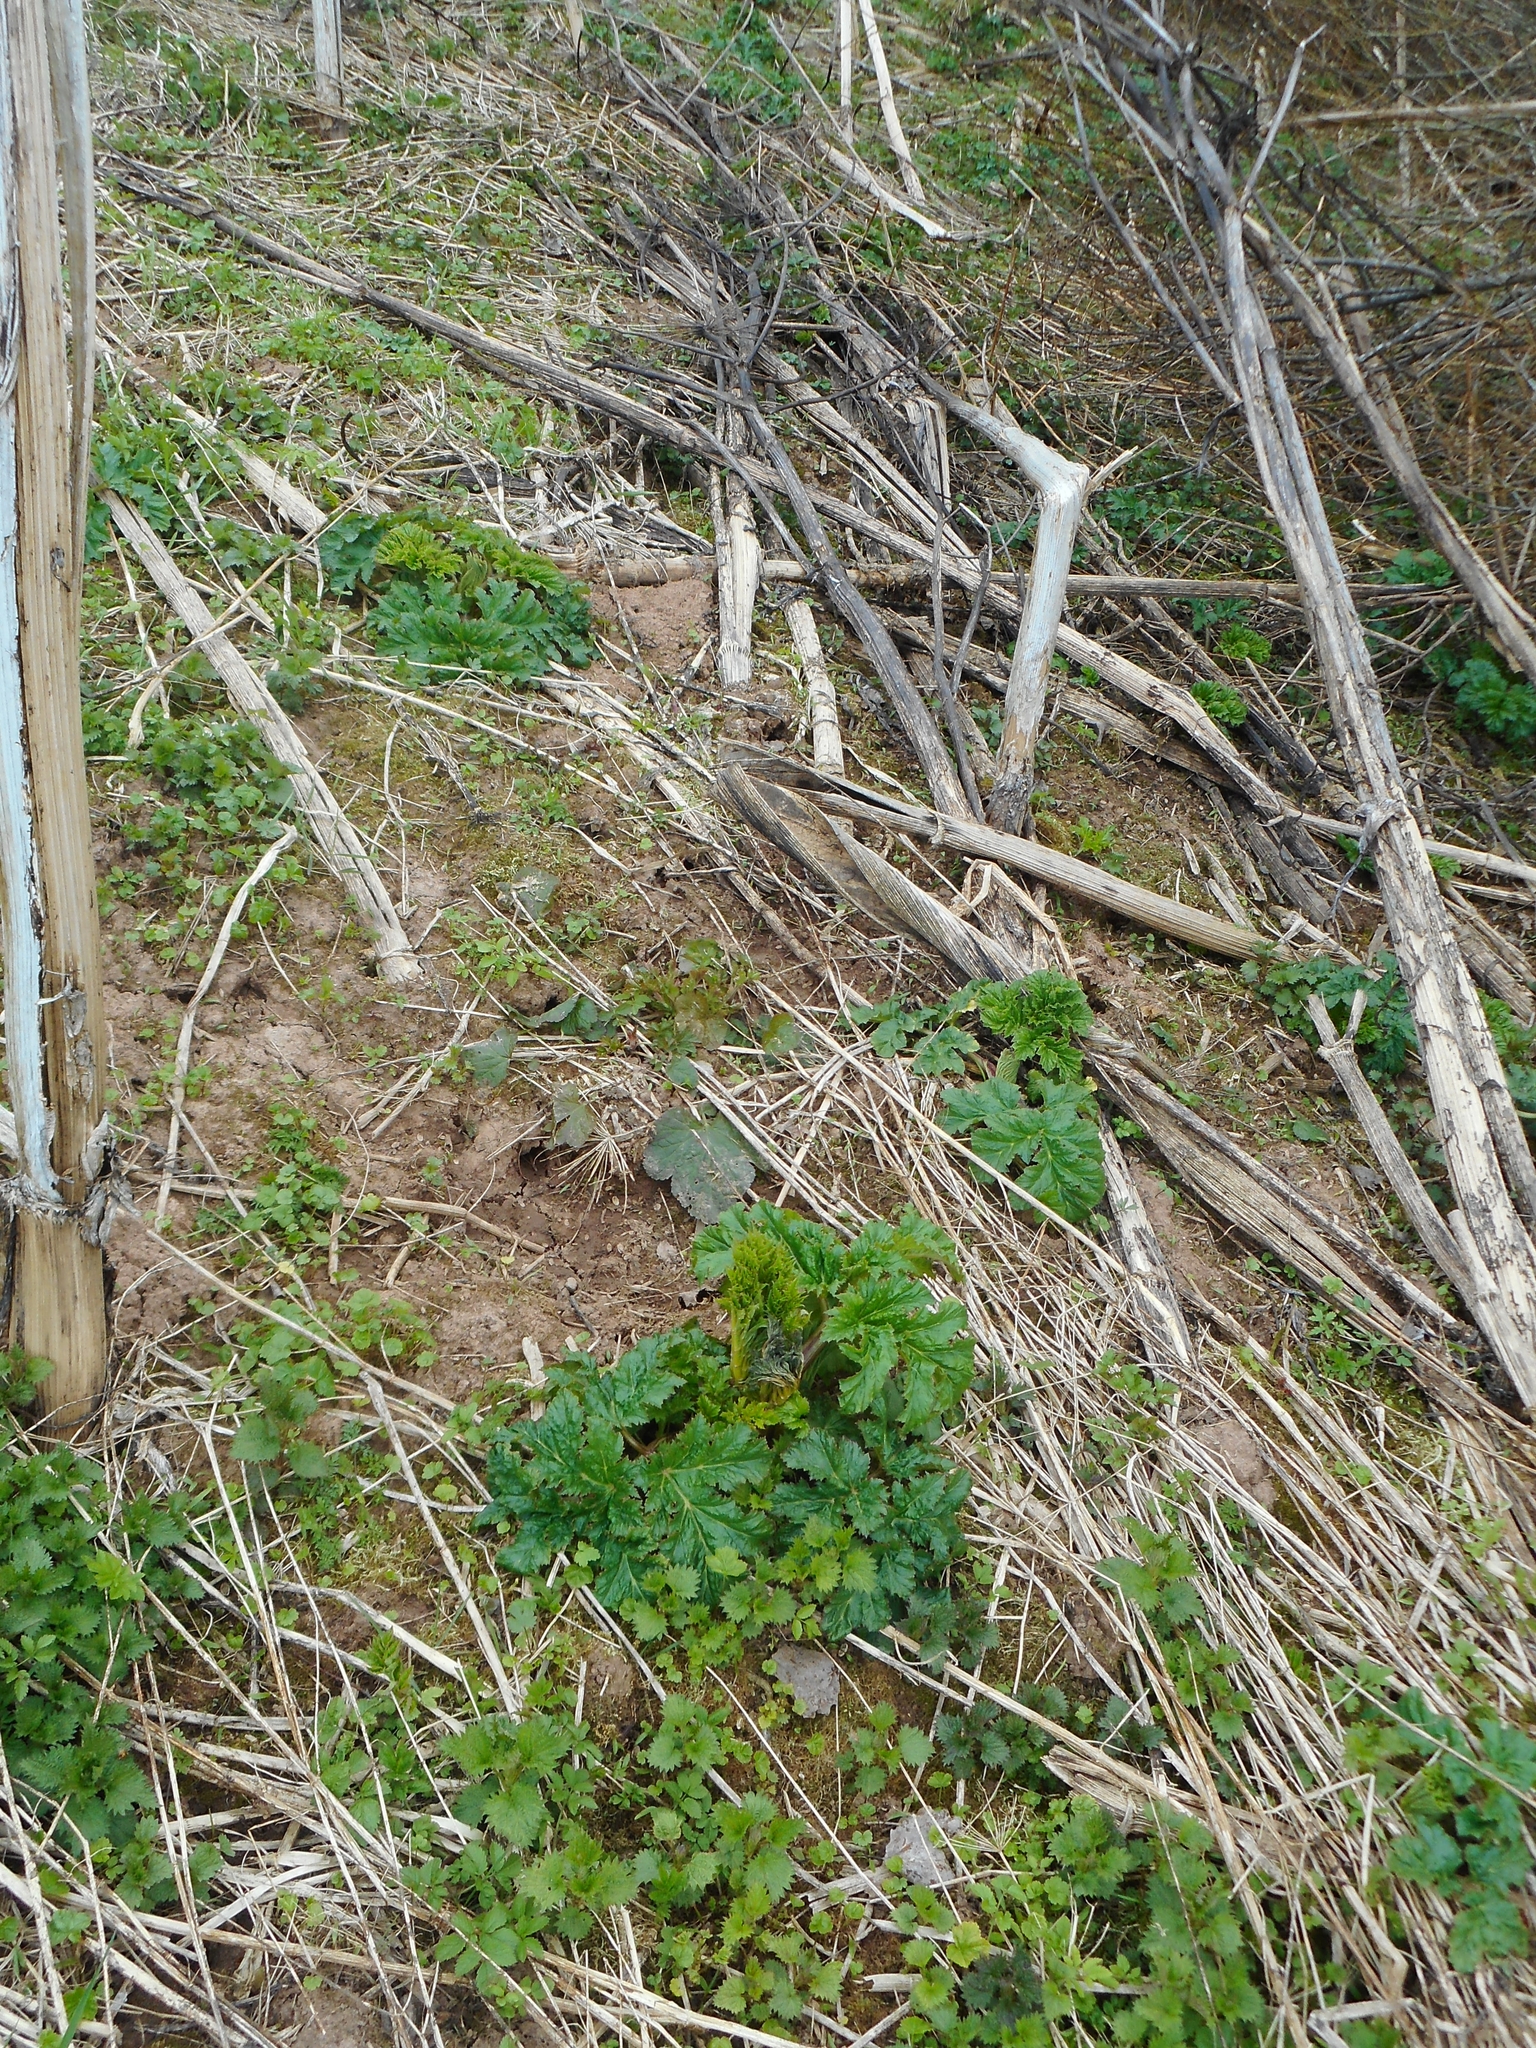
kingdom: Plantae
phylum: Tracheophyta
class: Magnoliopsida
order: Apiales
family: Apiaceae
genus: Heracleum
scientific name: Heracleum sosnowskyi
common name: Sosnowsky's hogweed
